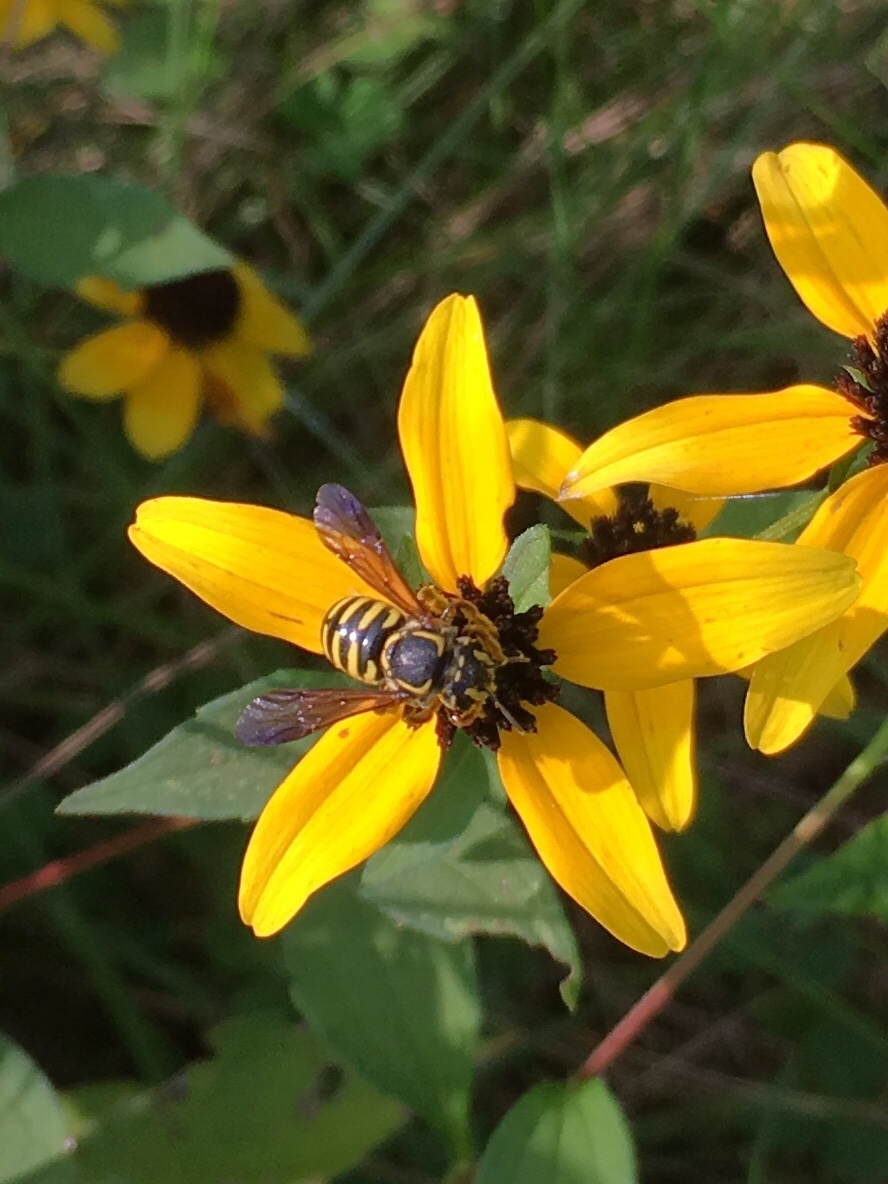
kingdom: Animalia
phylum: Arthropoda
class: Insecta
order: Hymenoptera
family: Megachilidae
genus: Paranthidium
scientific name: Paranthidium jugatorium
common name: Sunflower burrowing-resin bee
